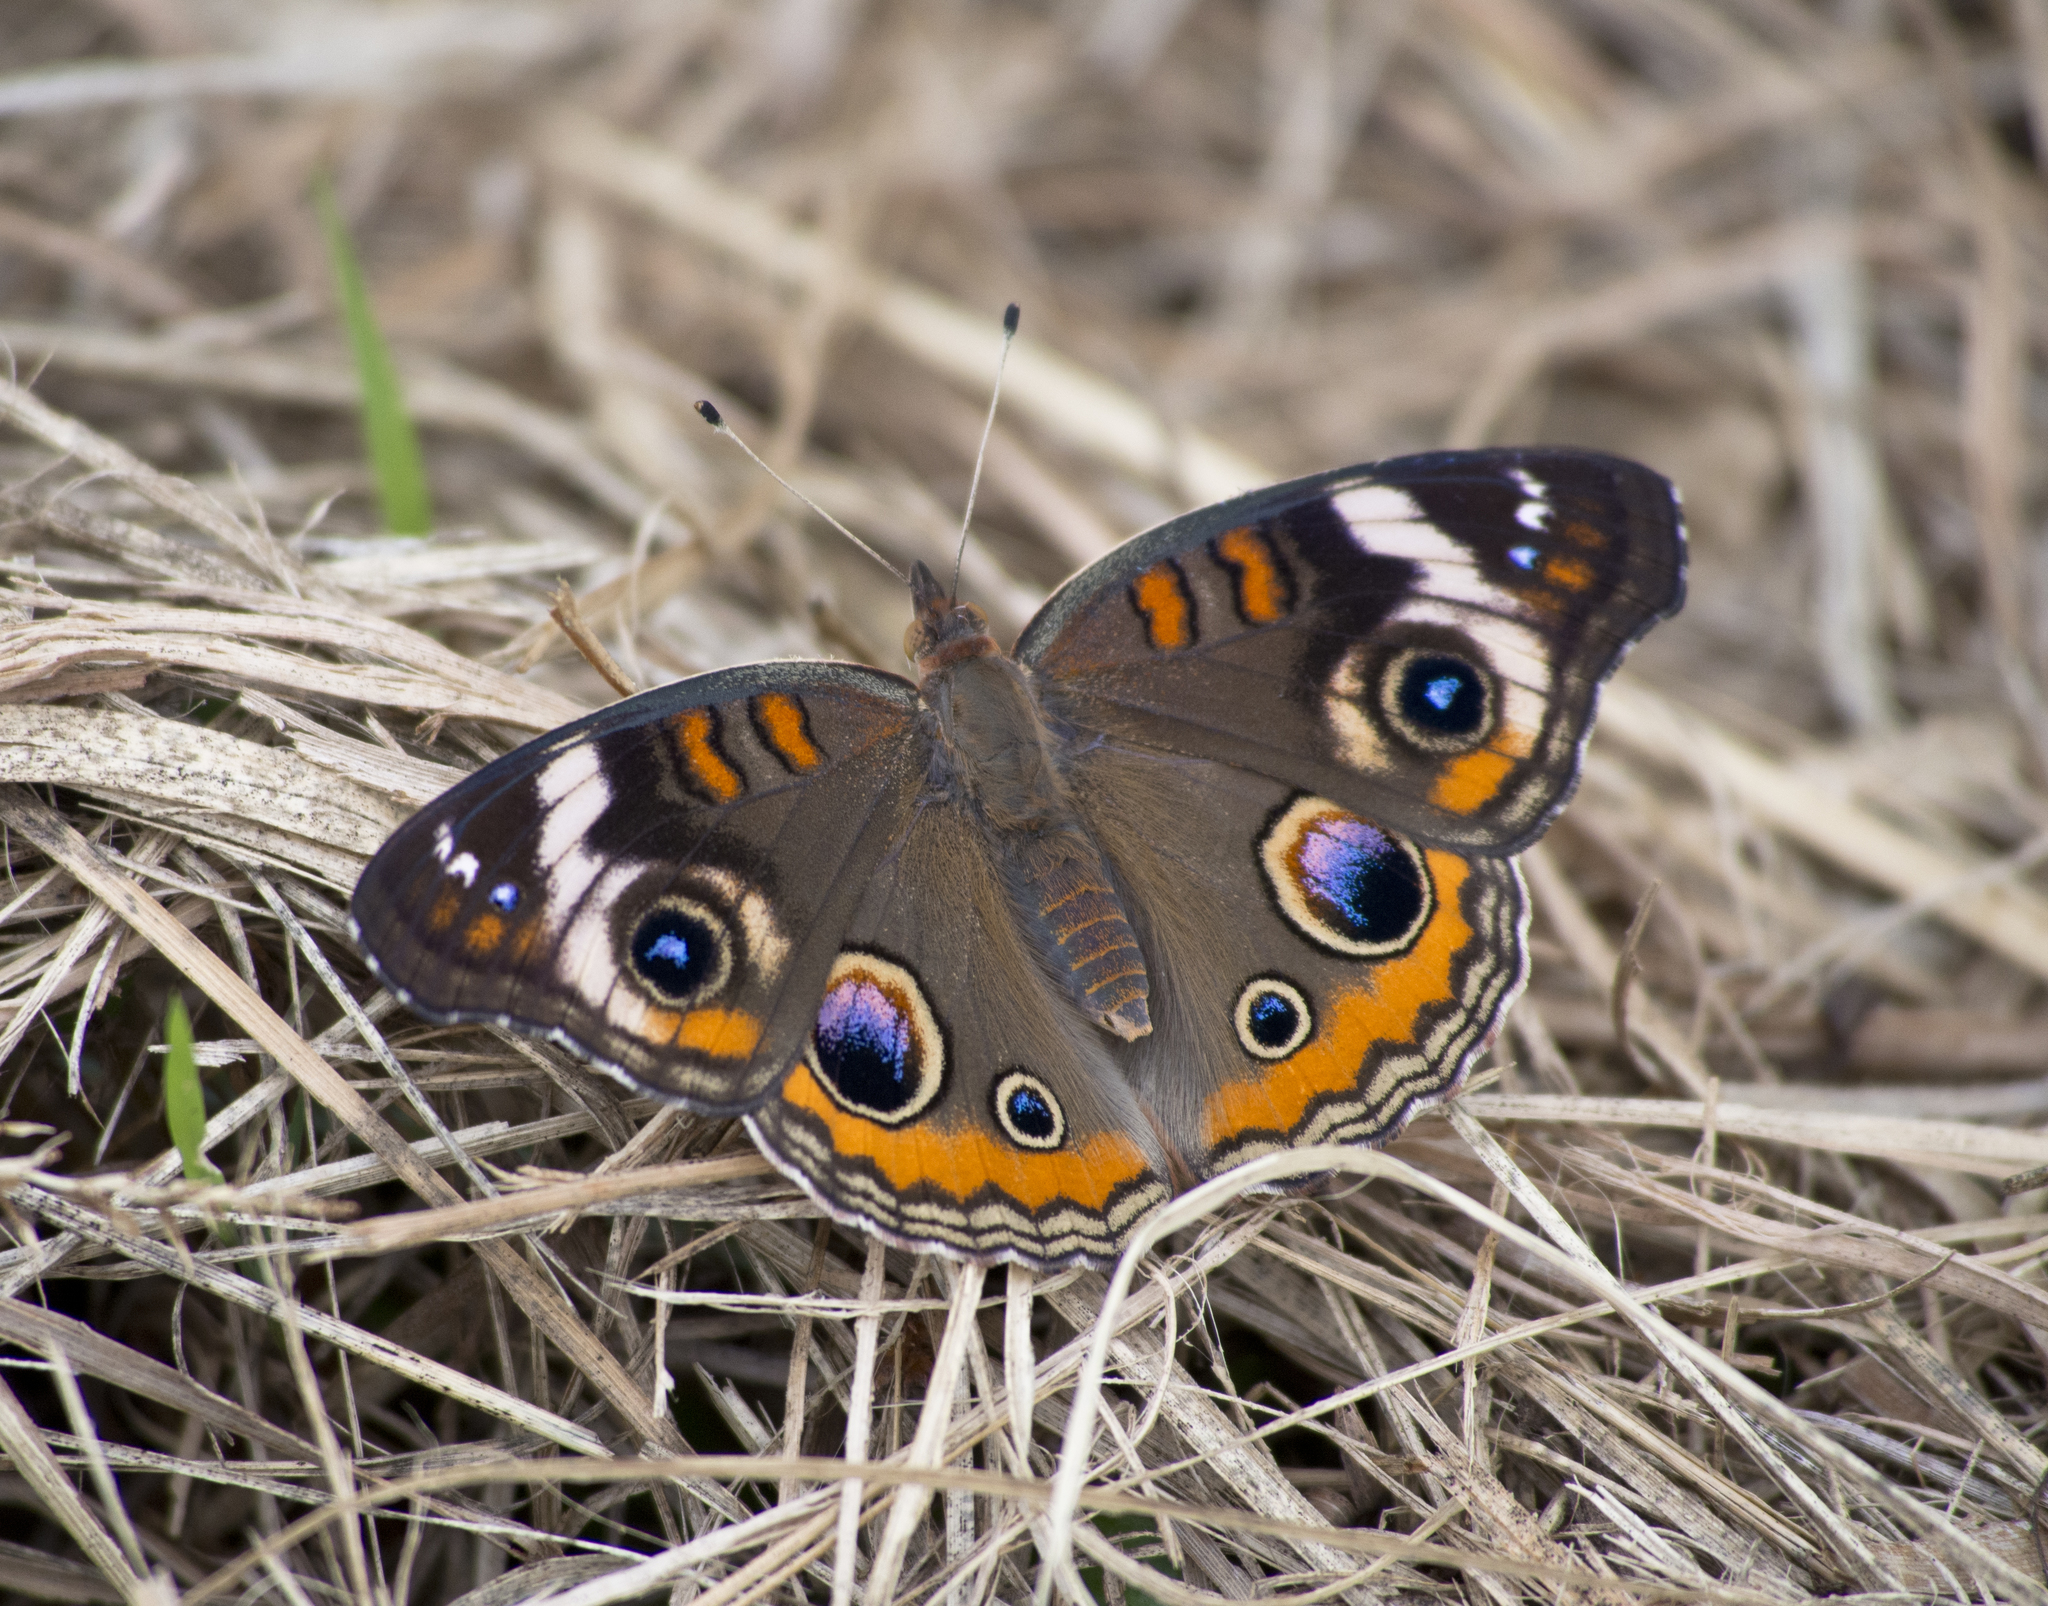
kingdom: Animalia
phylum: Arthropoda
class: Insecta
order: Lepidoptera
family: Nymphalidae
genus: Junonia
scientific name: Junonia coenia
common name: Common buckeye
